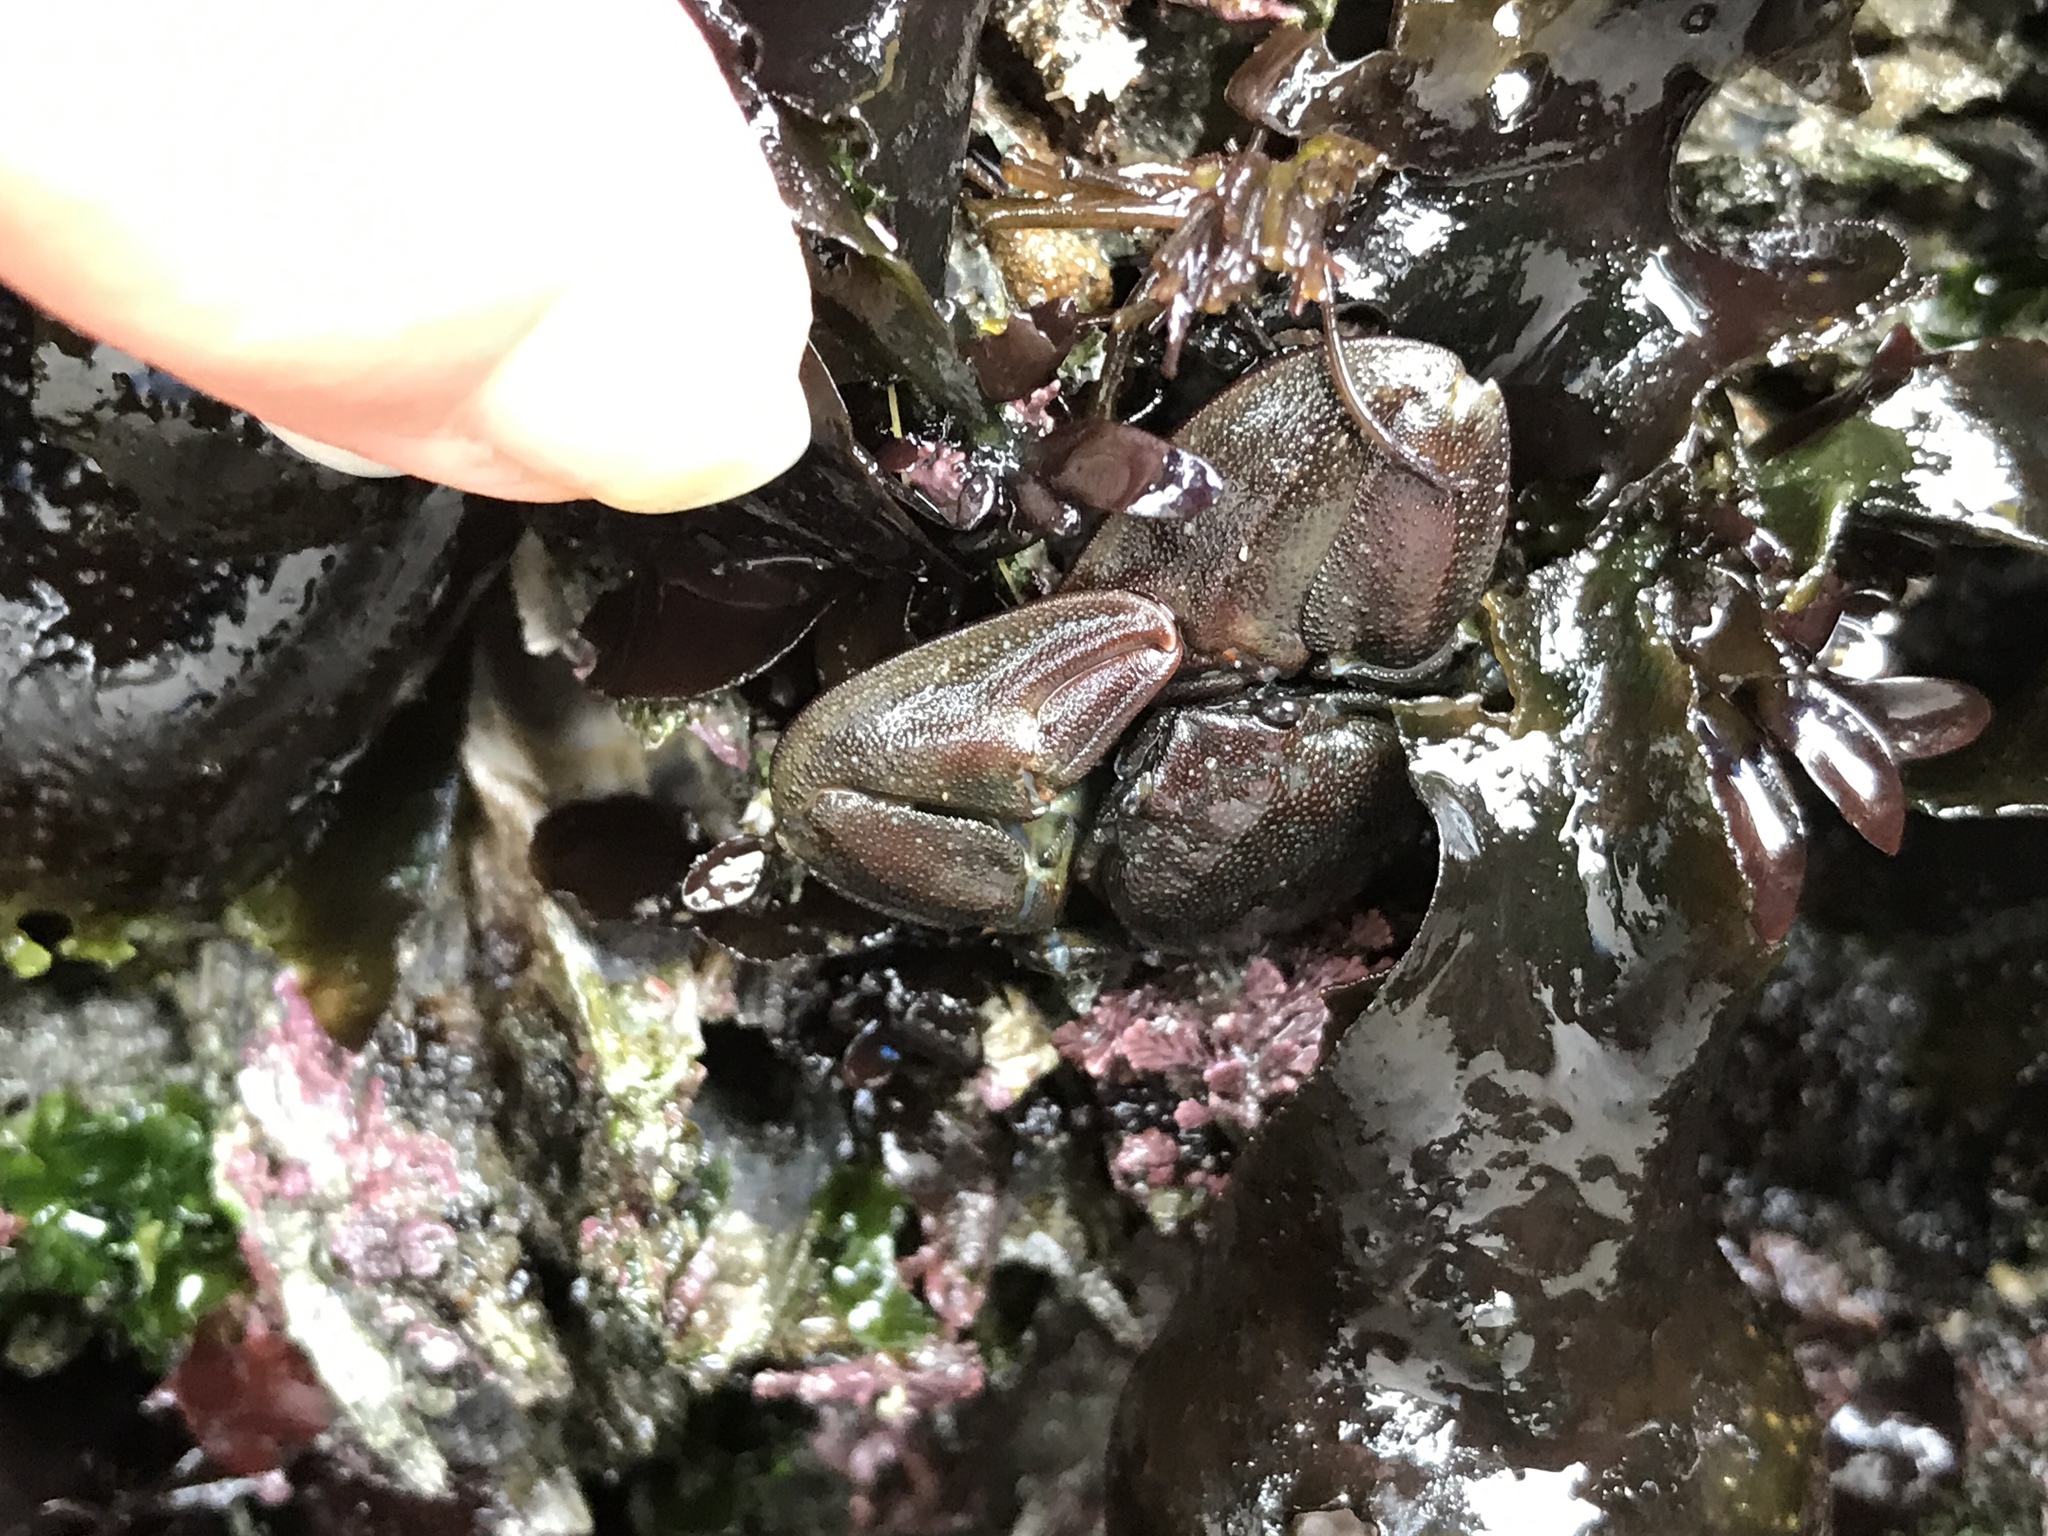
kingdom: Animalia
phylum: Arthropoda
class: Malacostraca
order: Decapoda
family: Porcellanidae
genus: Petrolisthes
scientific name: Petrolisthes eriomerus
